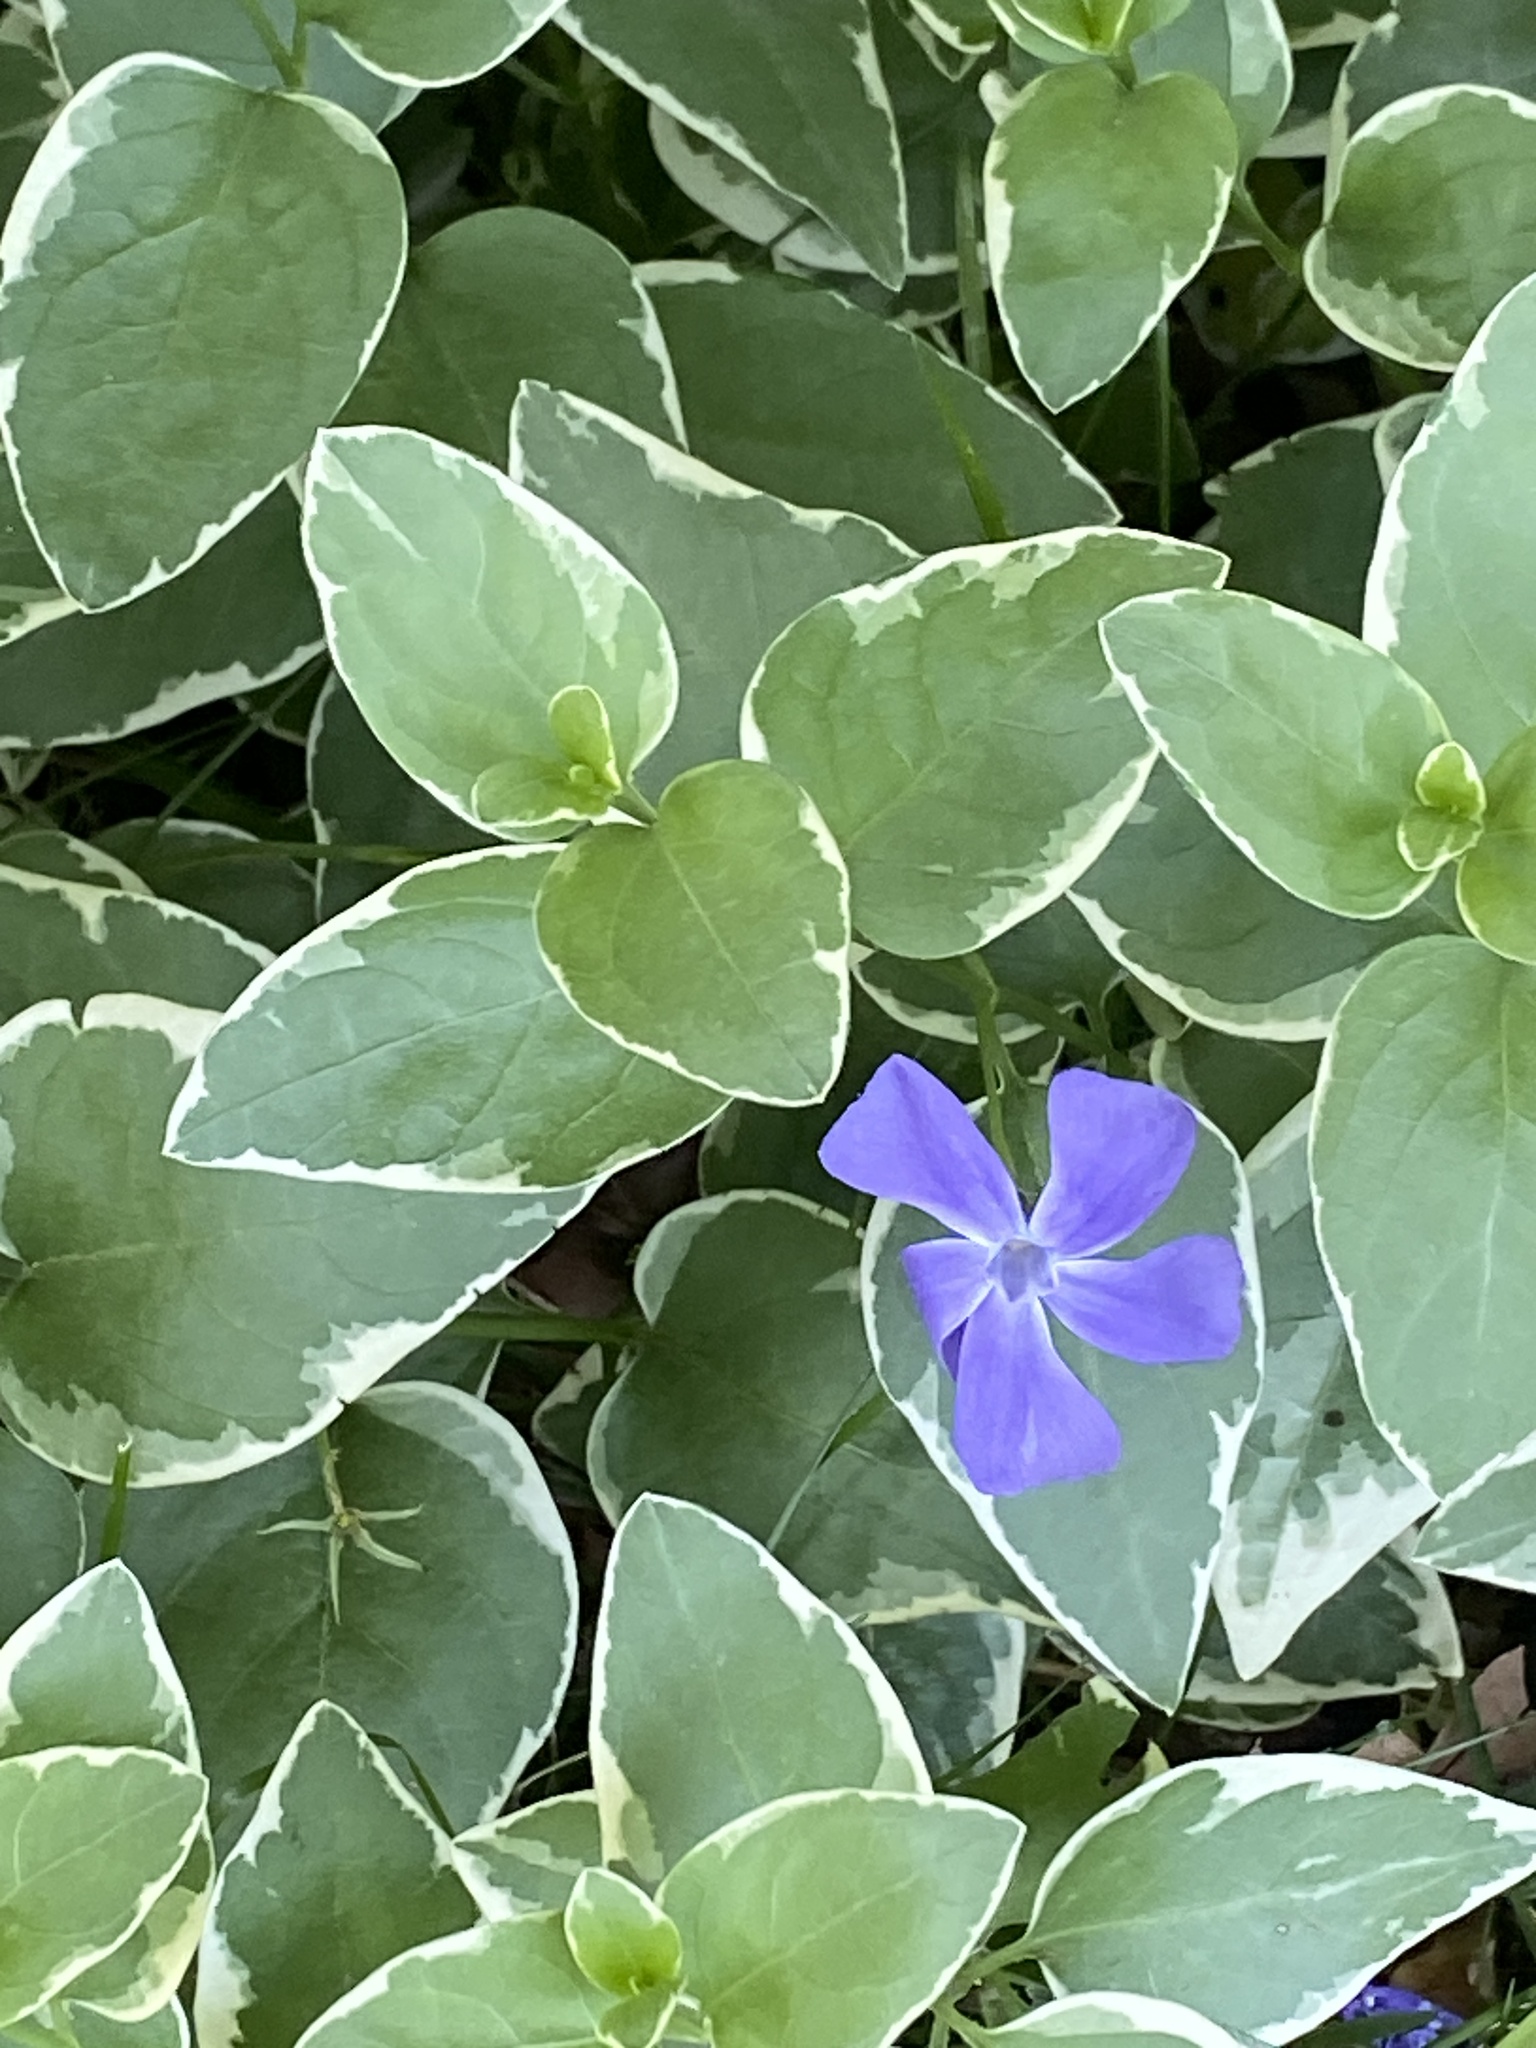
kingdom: Plantae
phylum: Tracheophyta
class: Magnoliopsida
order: Gentianales
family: Apocynaceae
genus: Vinca
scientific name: Vinca major
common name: Greater periwinkle
